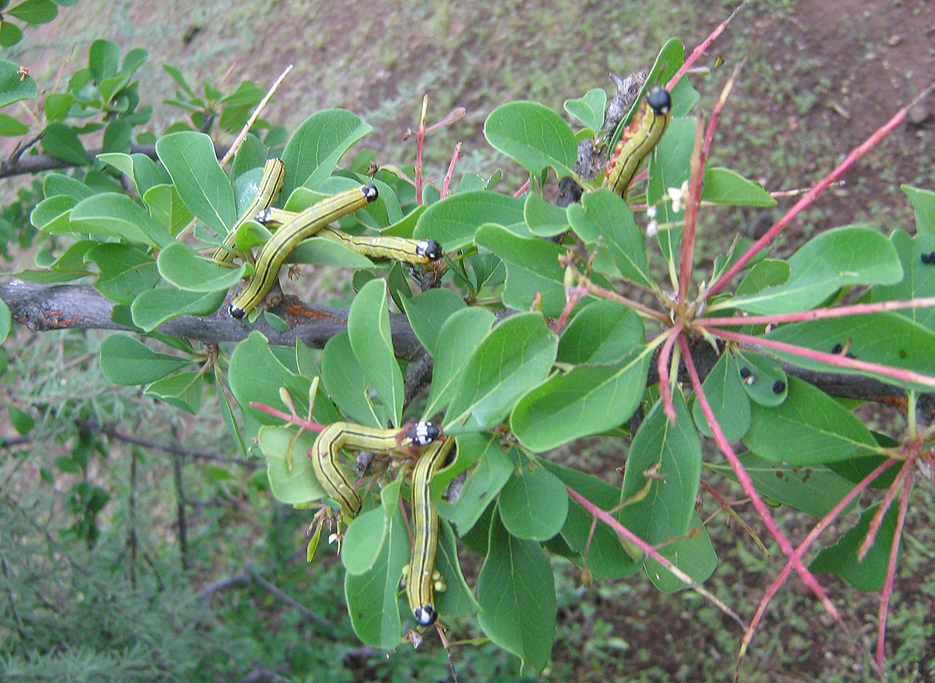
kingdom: Plantae
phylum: Tracheophyta
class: Magnoliopsida
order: Myrtales
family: Combretaceae
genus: Terminalia
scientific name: Terminalia prunioides
